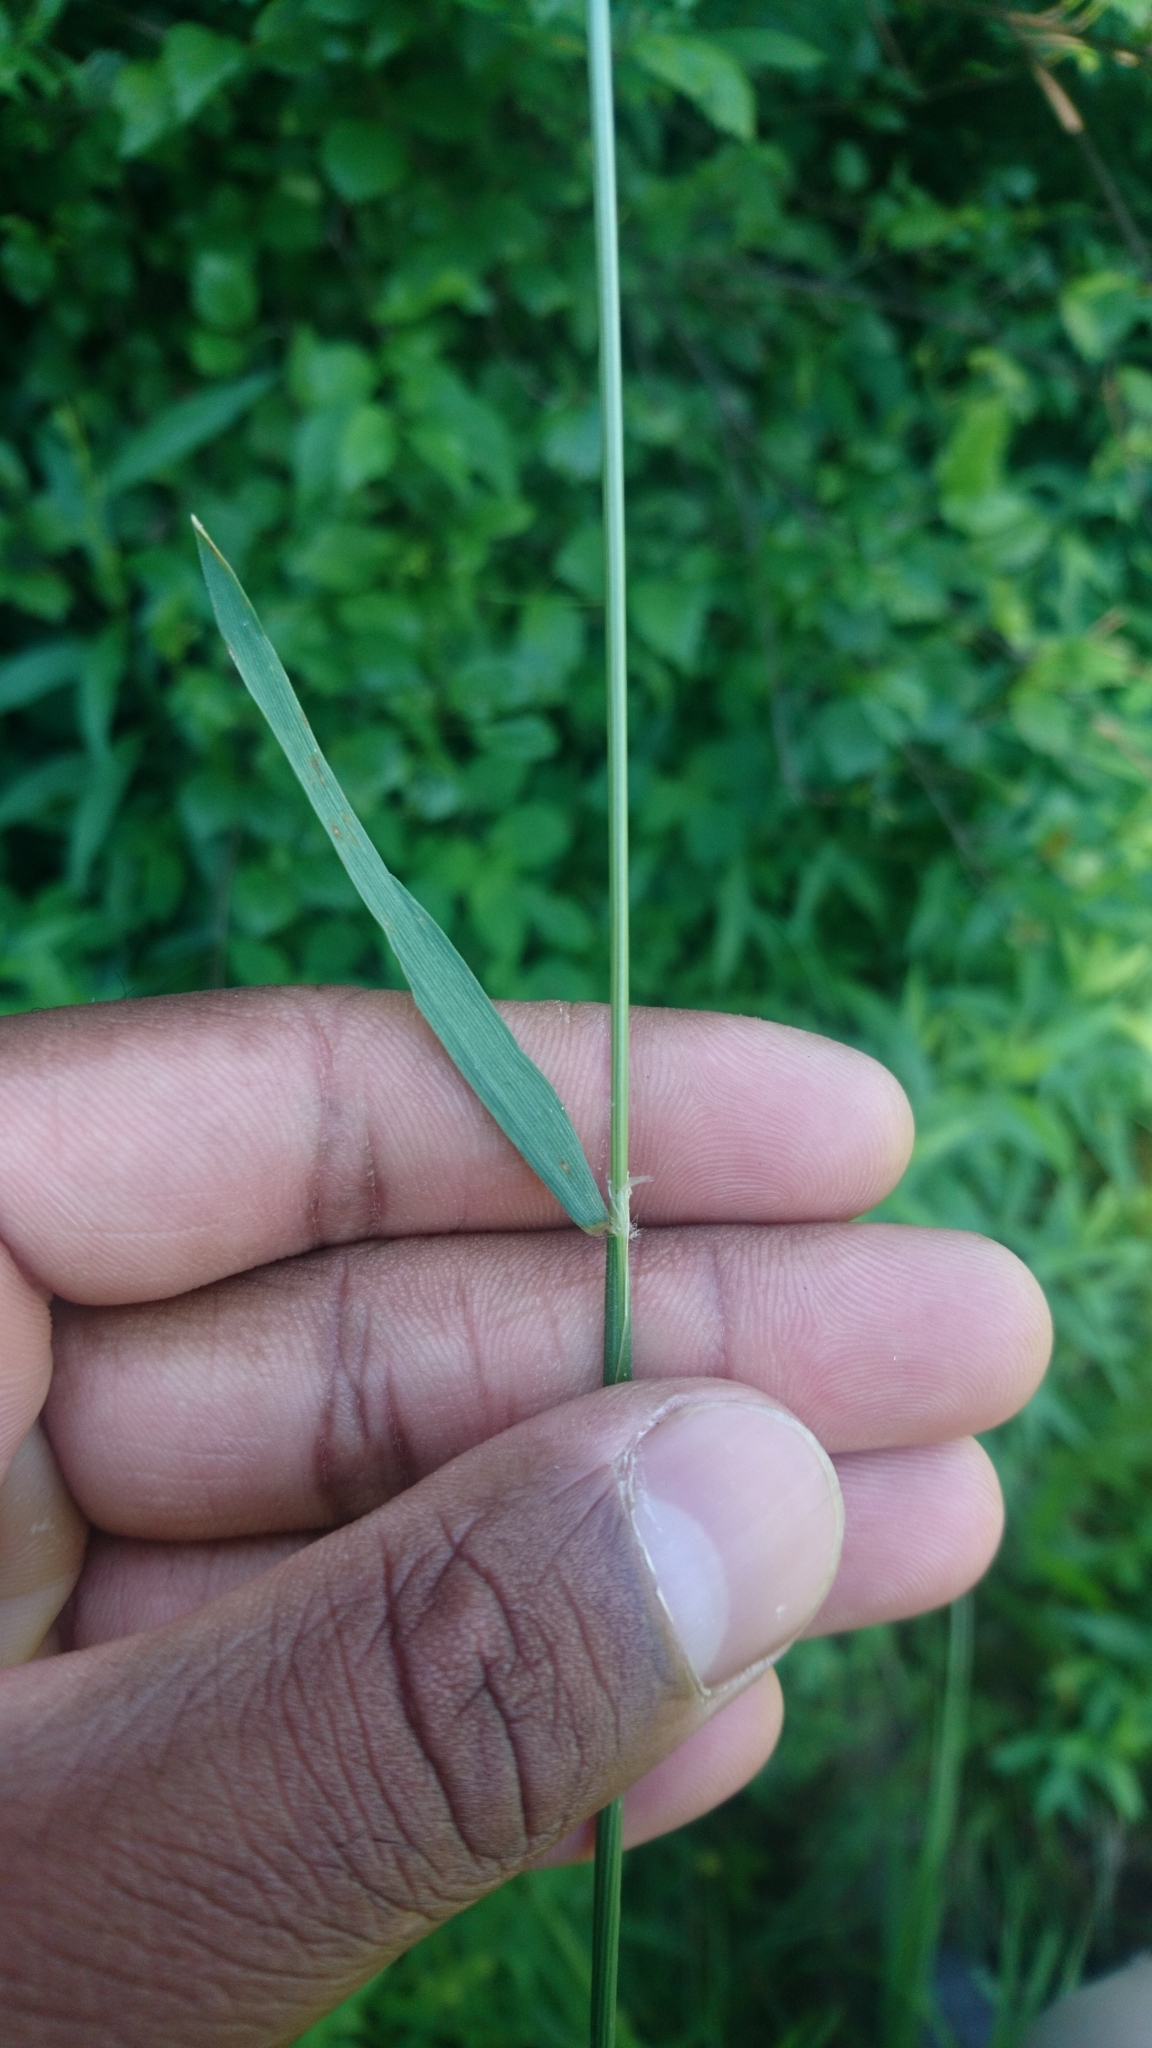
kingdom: Plantae
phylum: Tracheophyta
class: Liliopsida
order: Poales
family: Poaceae
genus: Anthoxanthum
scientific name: Anthoxanthum odoratum
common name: Sweet vernalgrass
